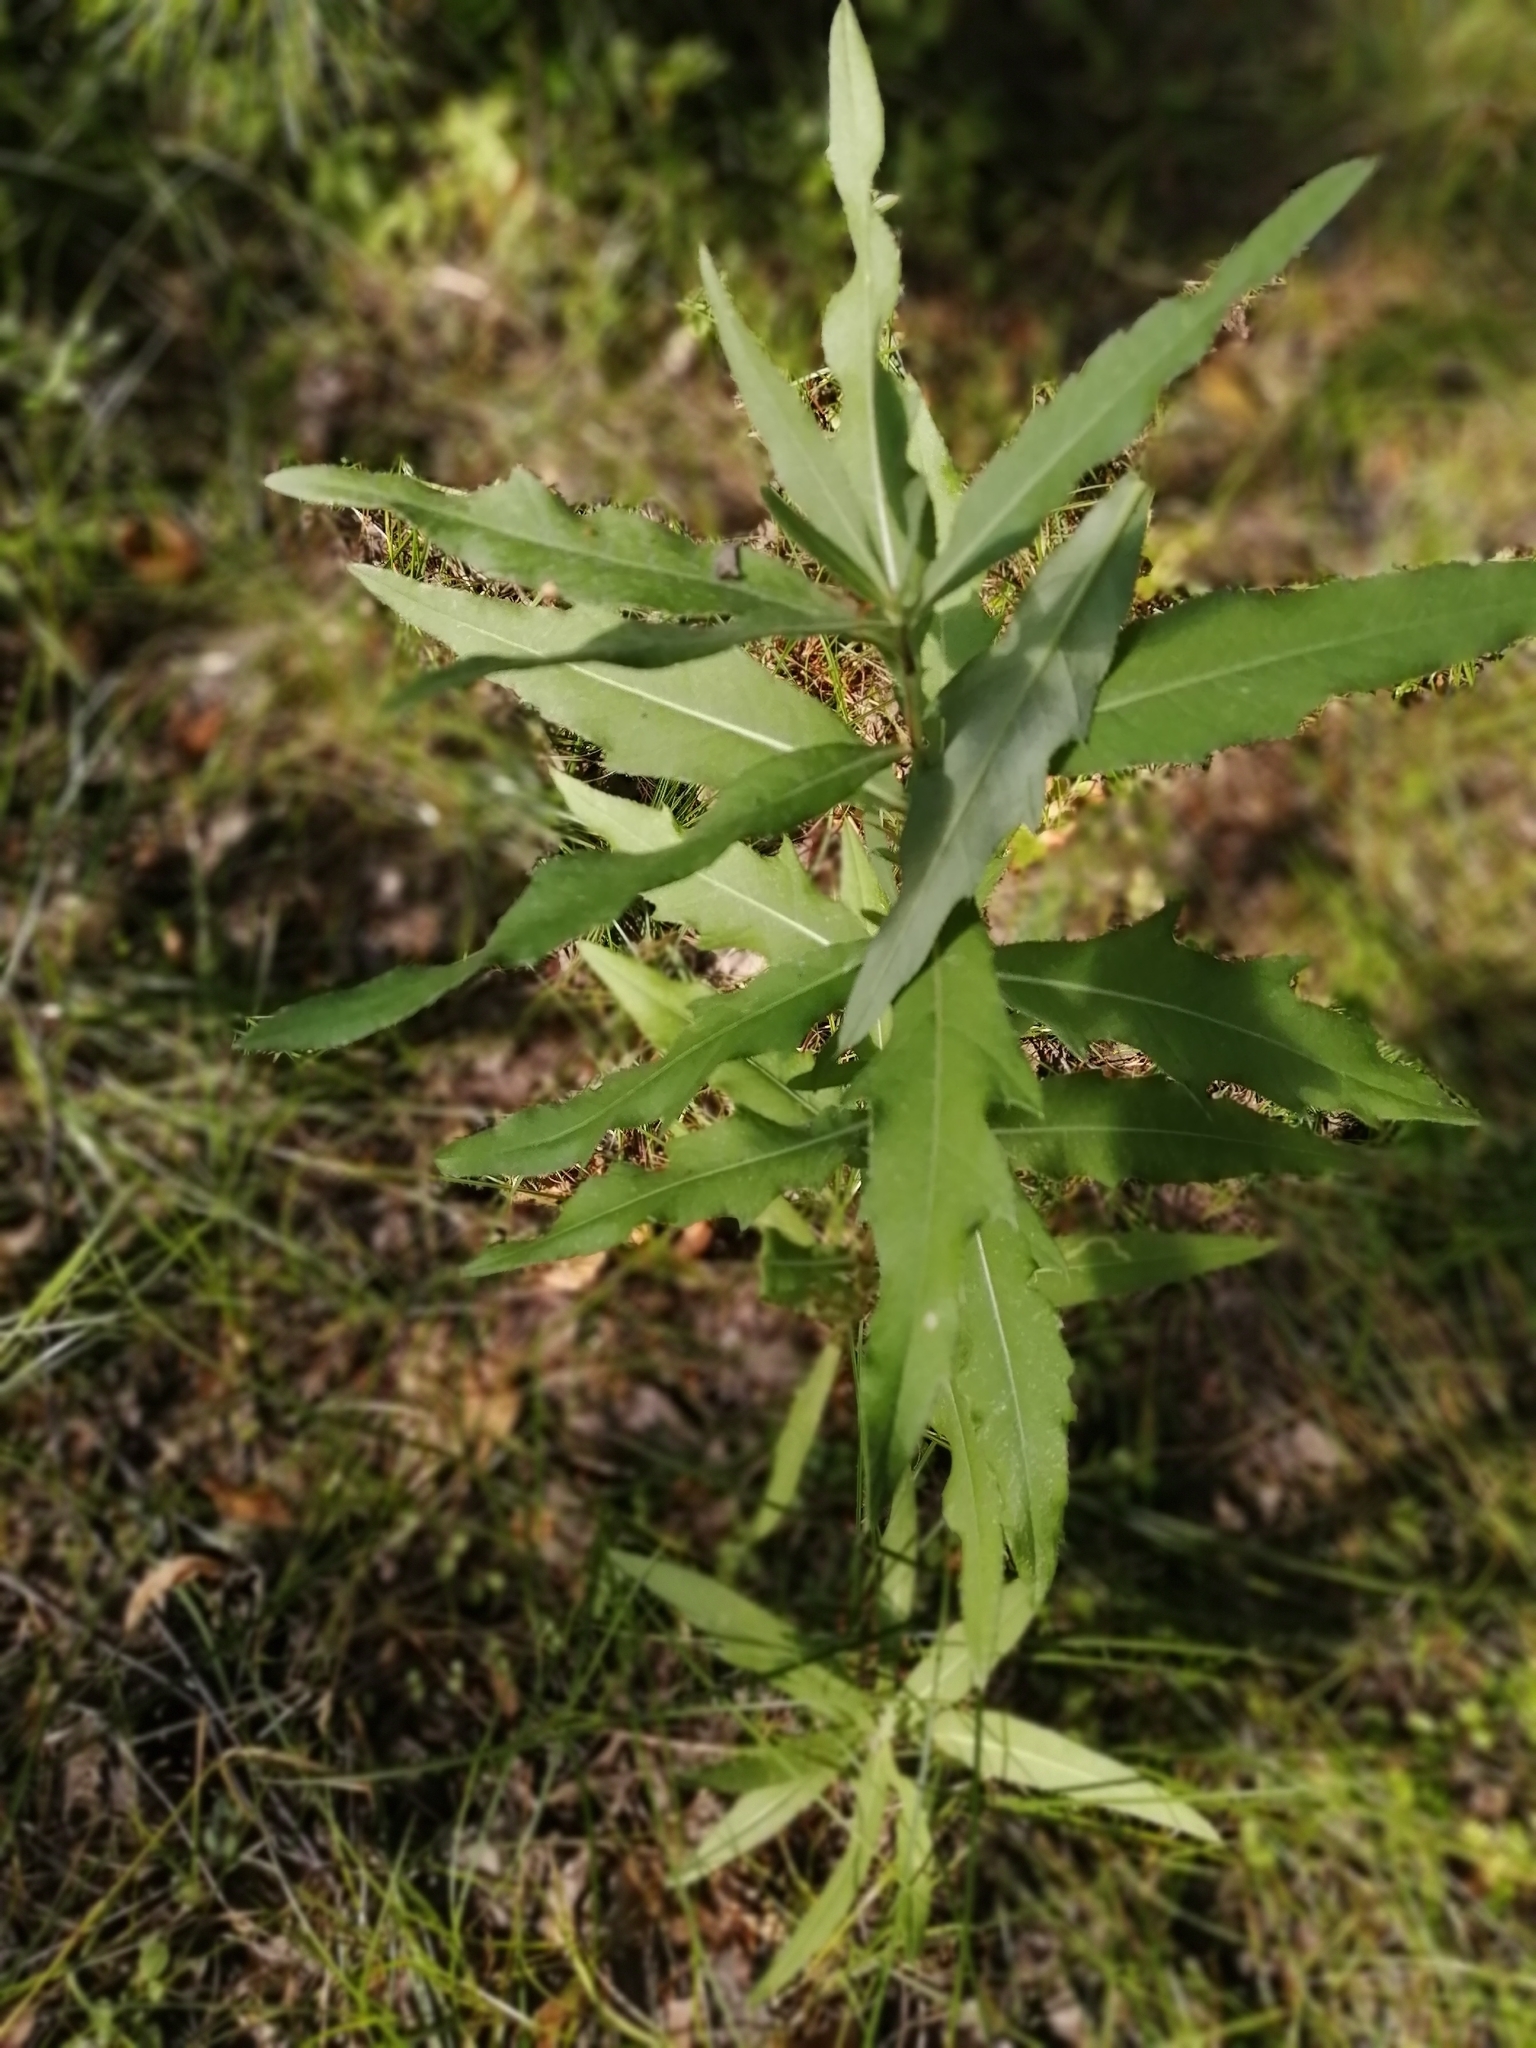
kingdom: Plantae
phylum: Tracheophyta
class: Magnoliopsida
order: Asterales
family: Asteraceae
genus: Cirsium
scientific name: Cirsium arvense
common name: Creeping thistle
